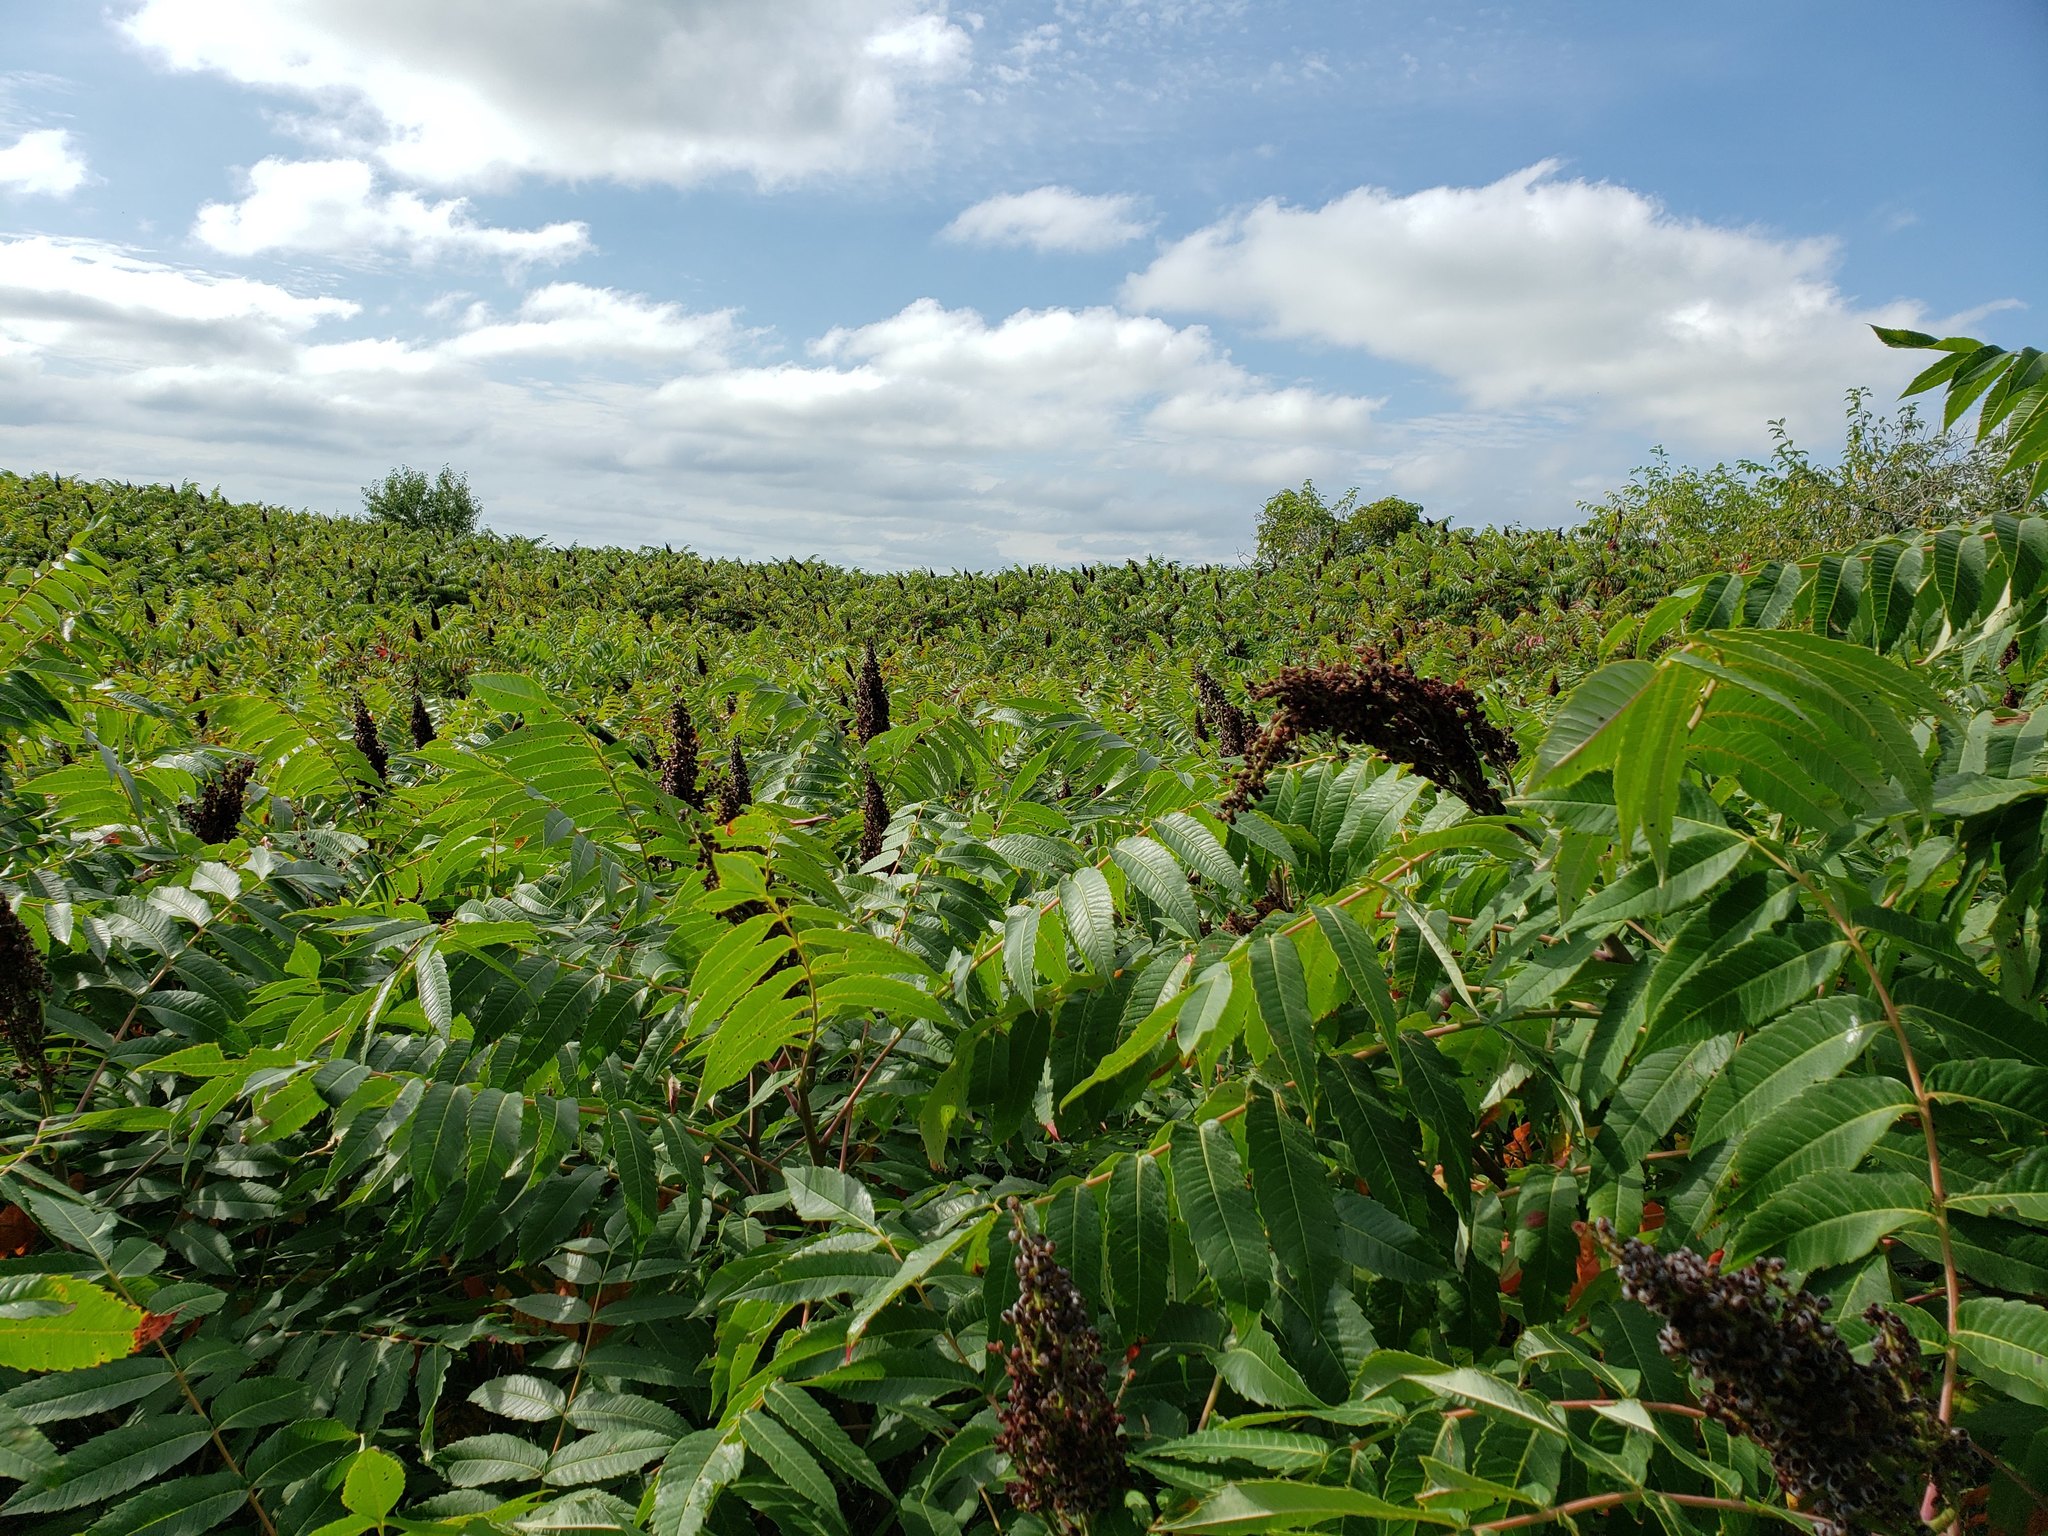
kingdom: Plantae
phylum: Tracheophyta
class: Magnoliopsida
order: Sapindales
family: Anacardiaceae
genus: Rhus
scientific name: Rhus glabra
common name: Scarlet sumac
